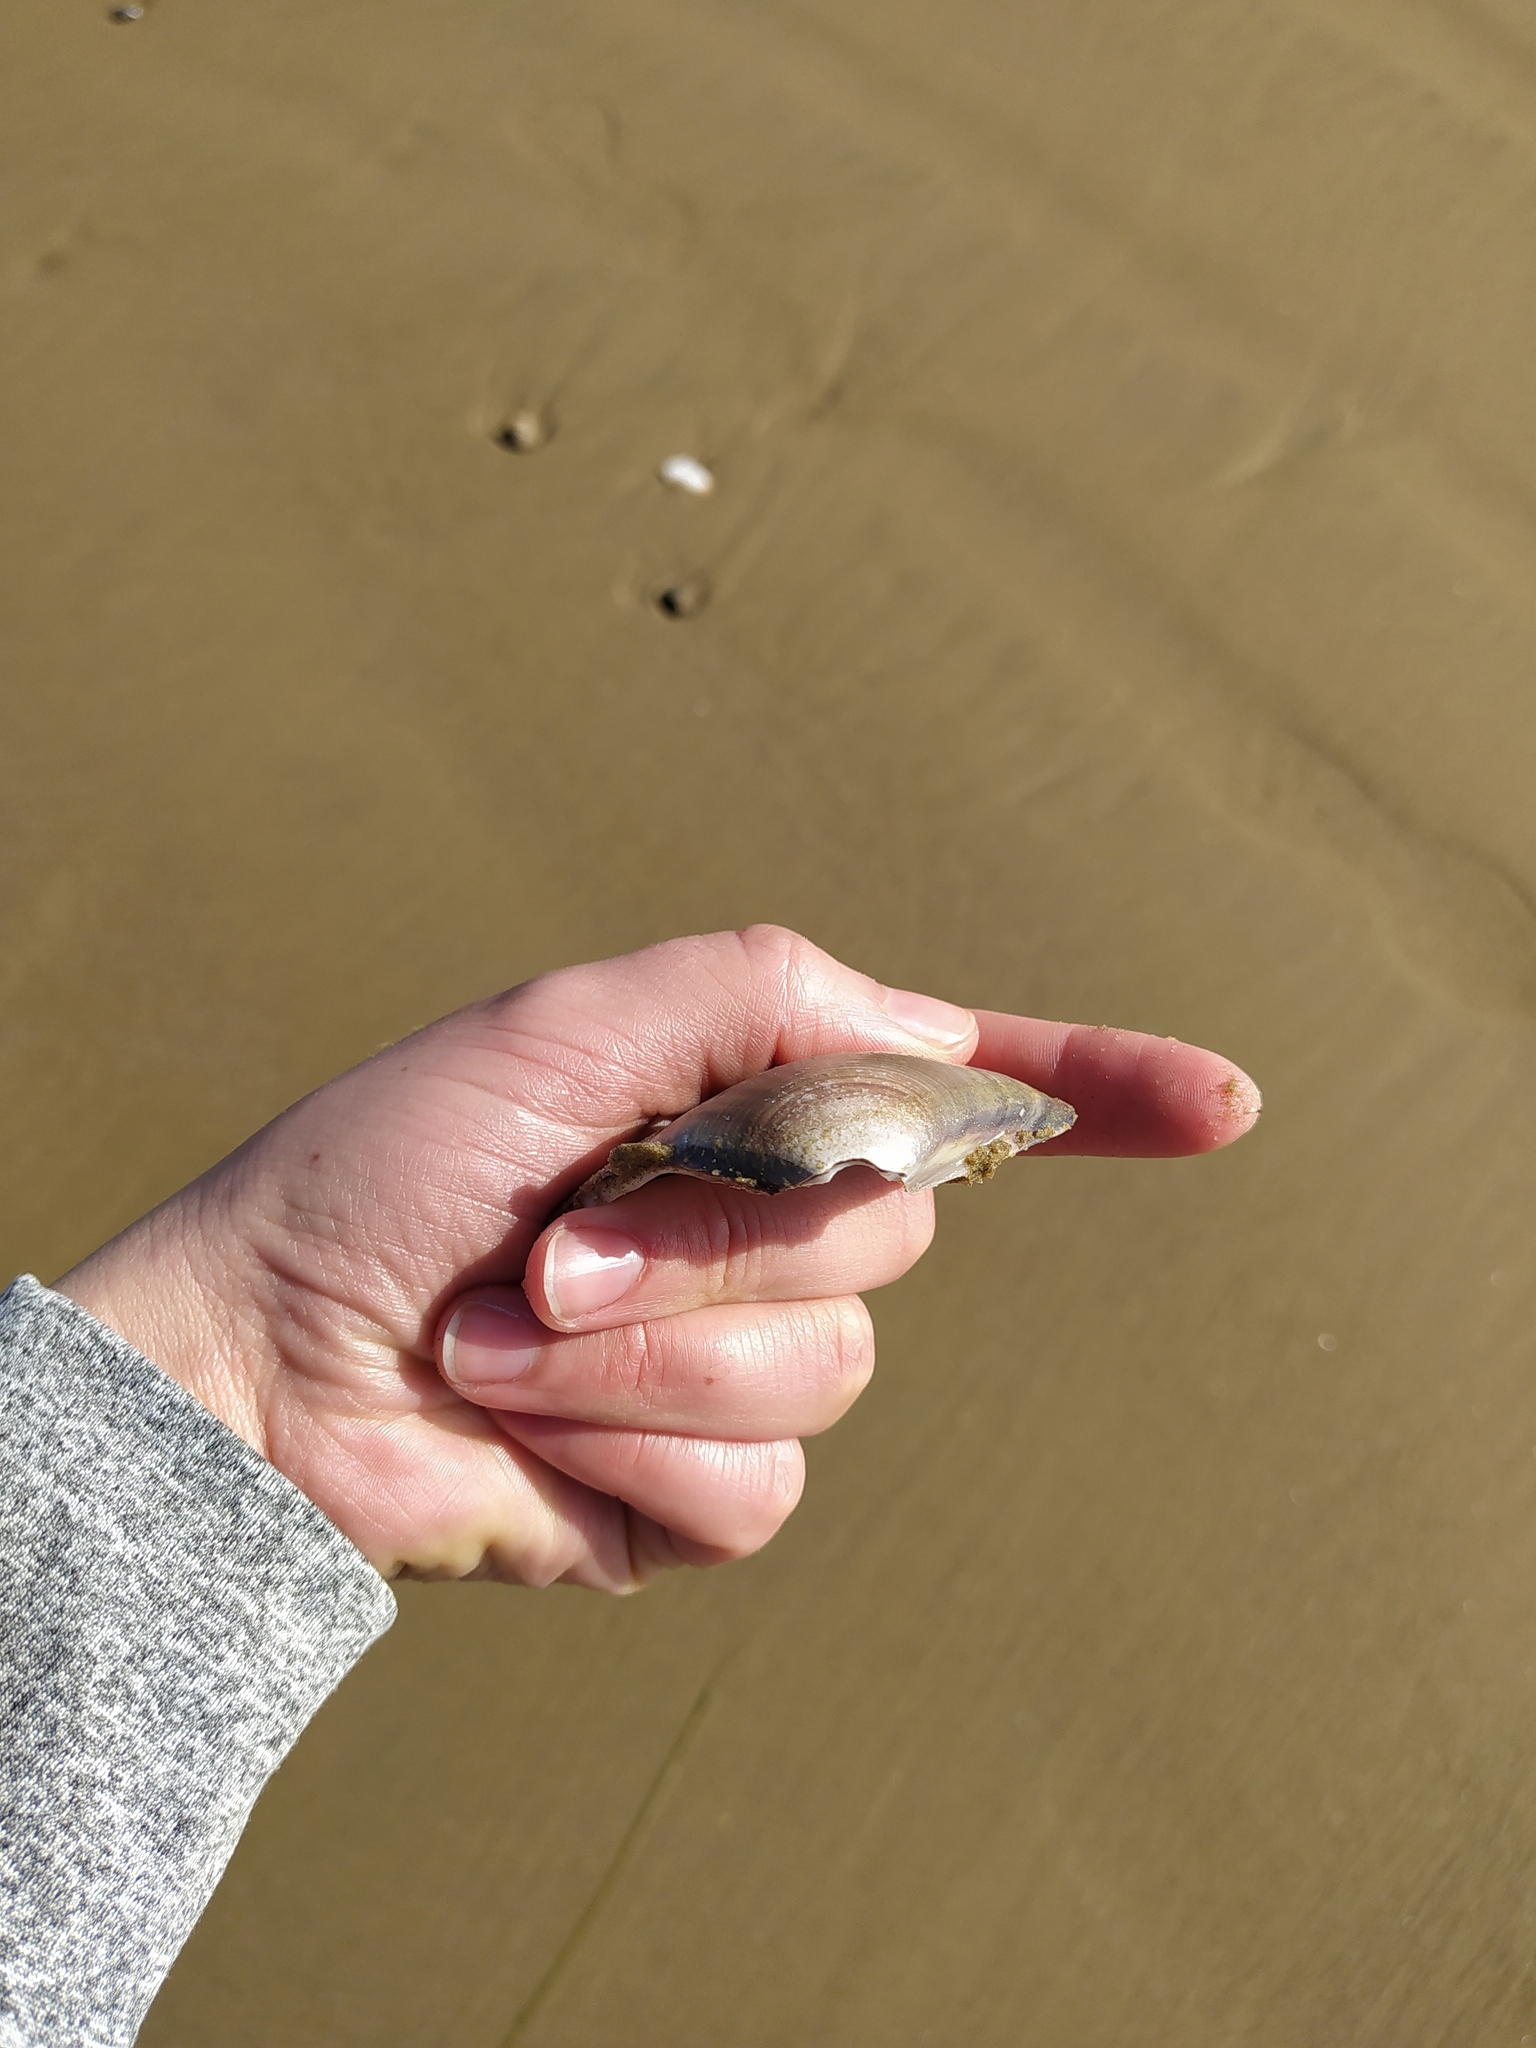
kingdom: Animalia
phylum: Mollusca
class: Bivalvia
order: Venerida
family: Veneridae
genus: Tivela
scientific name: Tivela stultorum
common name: Pismo clam
